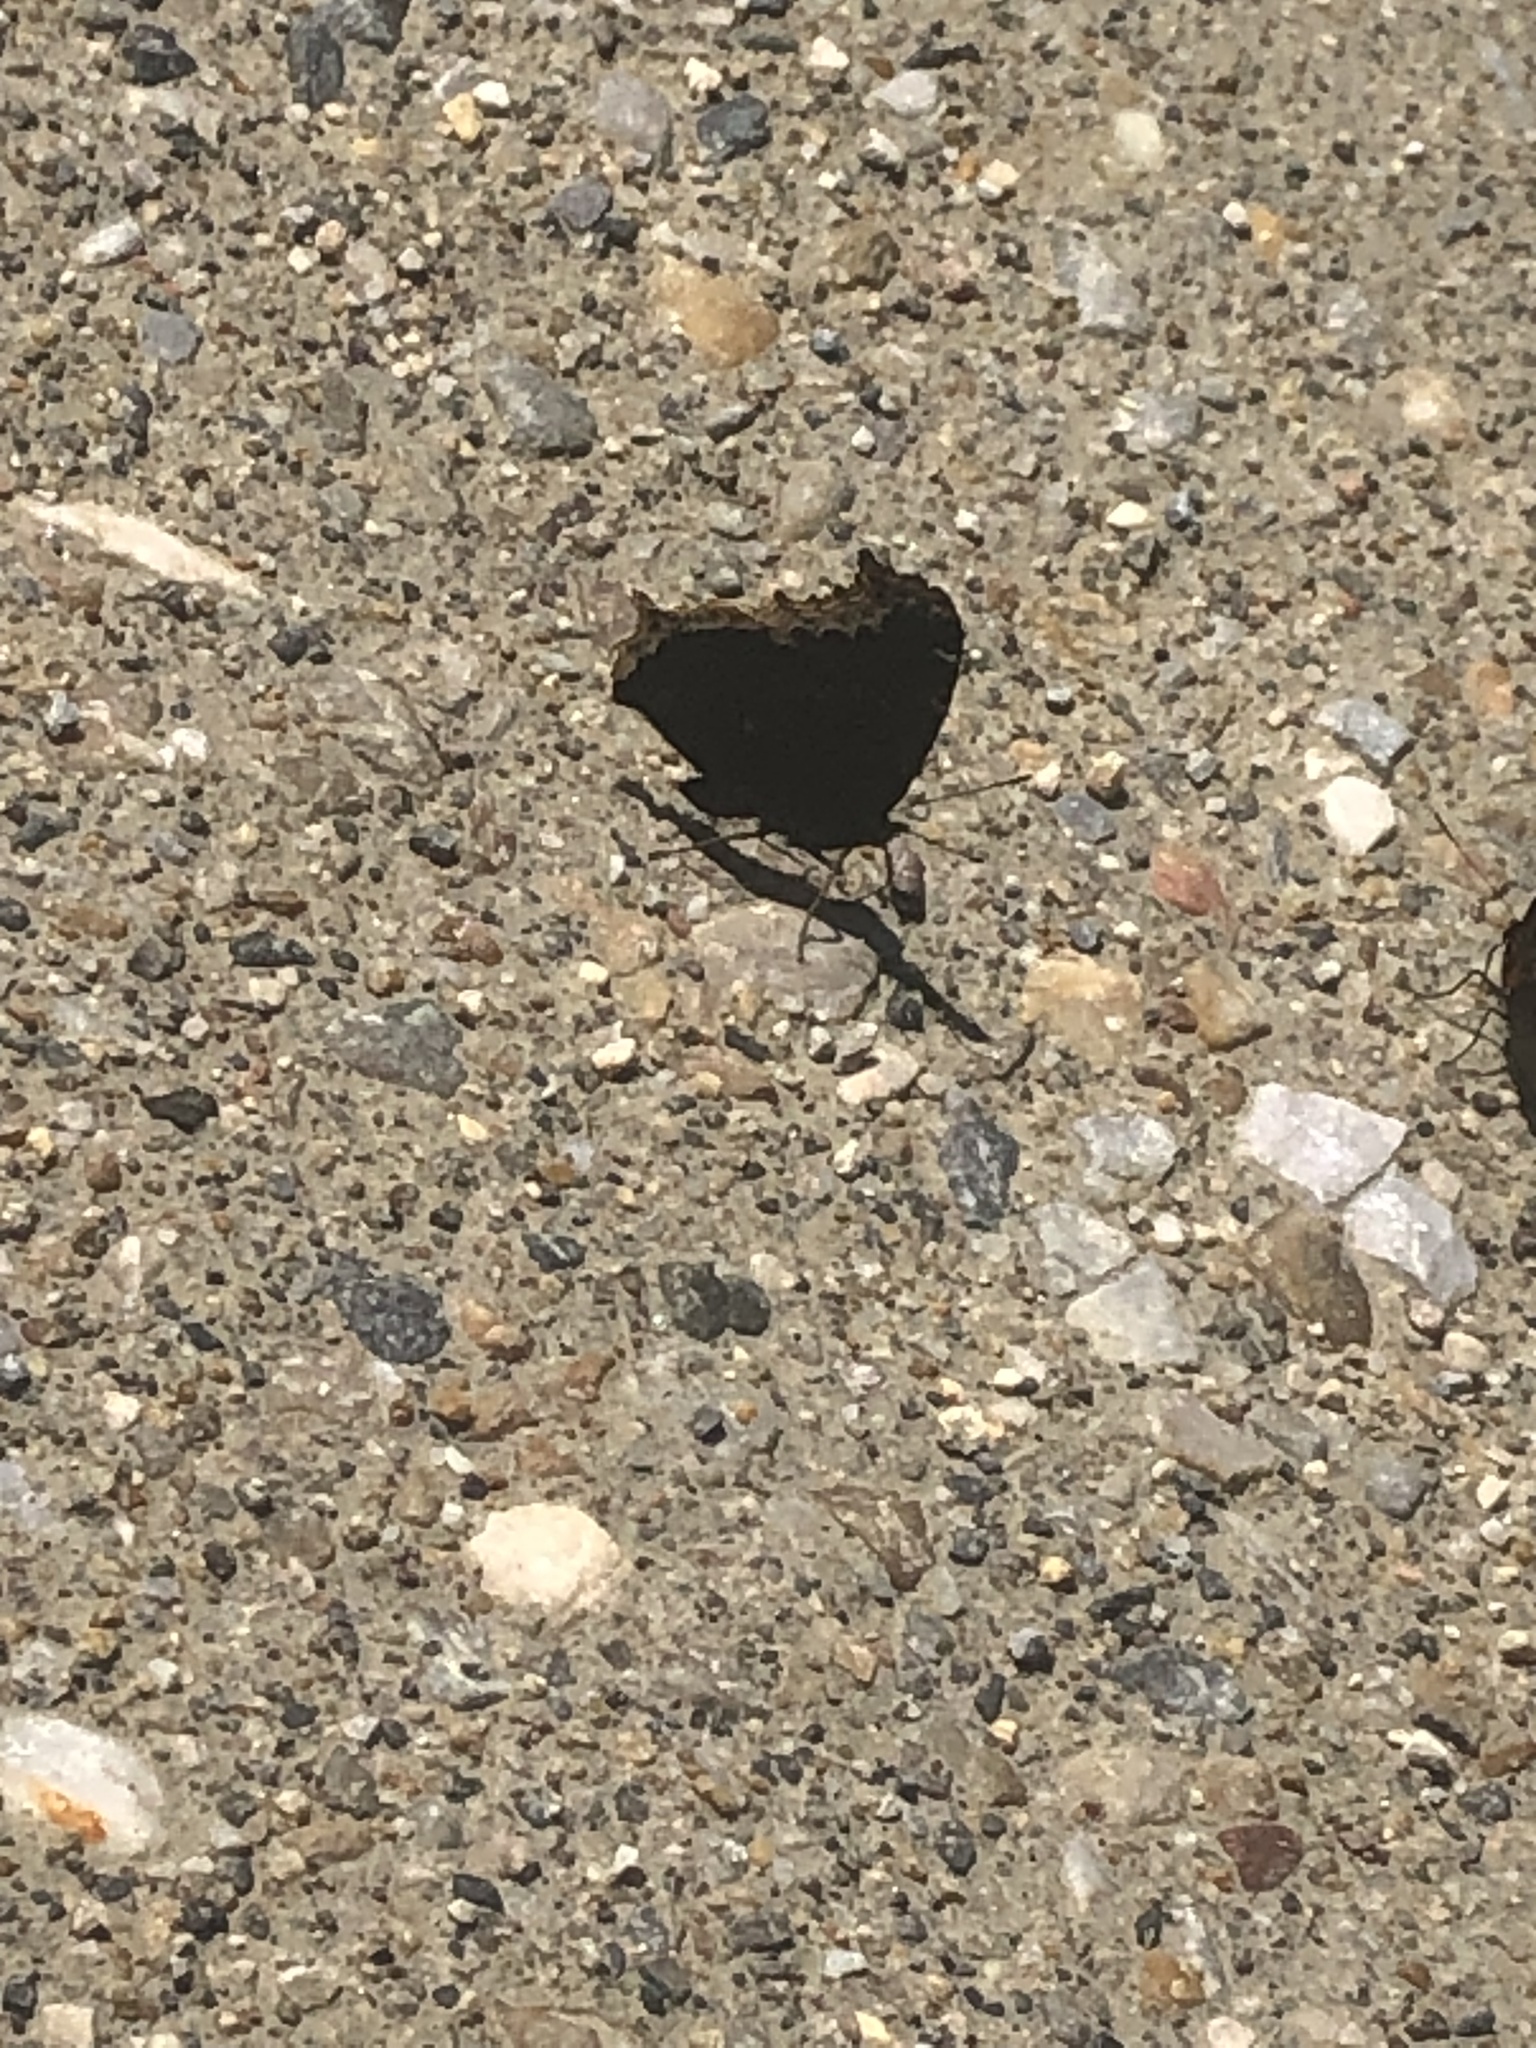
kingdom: Animalia
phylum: Arthropoda
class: Insecta
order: Lepidoptera
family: Nymphalidae
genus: Nymphalis
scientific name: Nymphalis antiopa
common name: Camberwell beauty
